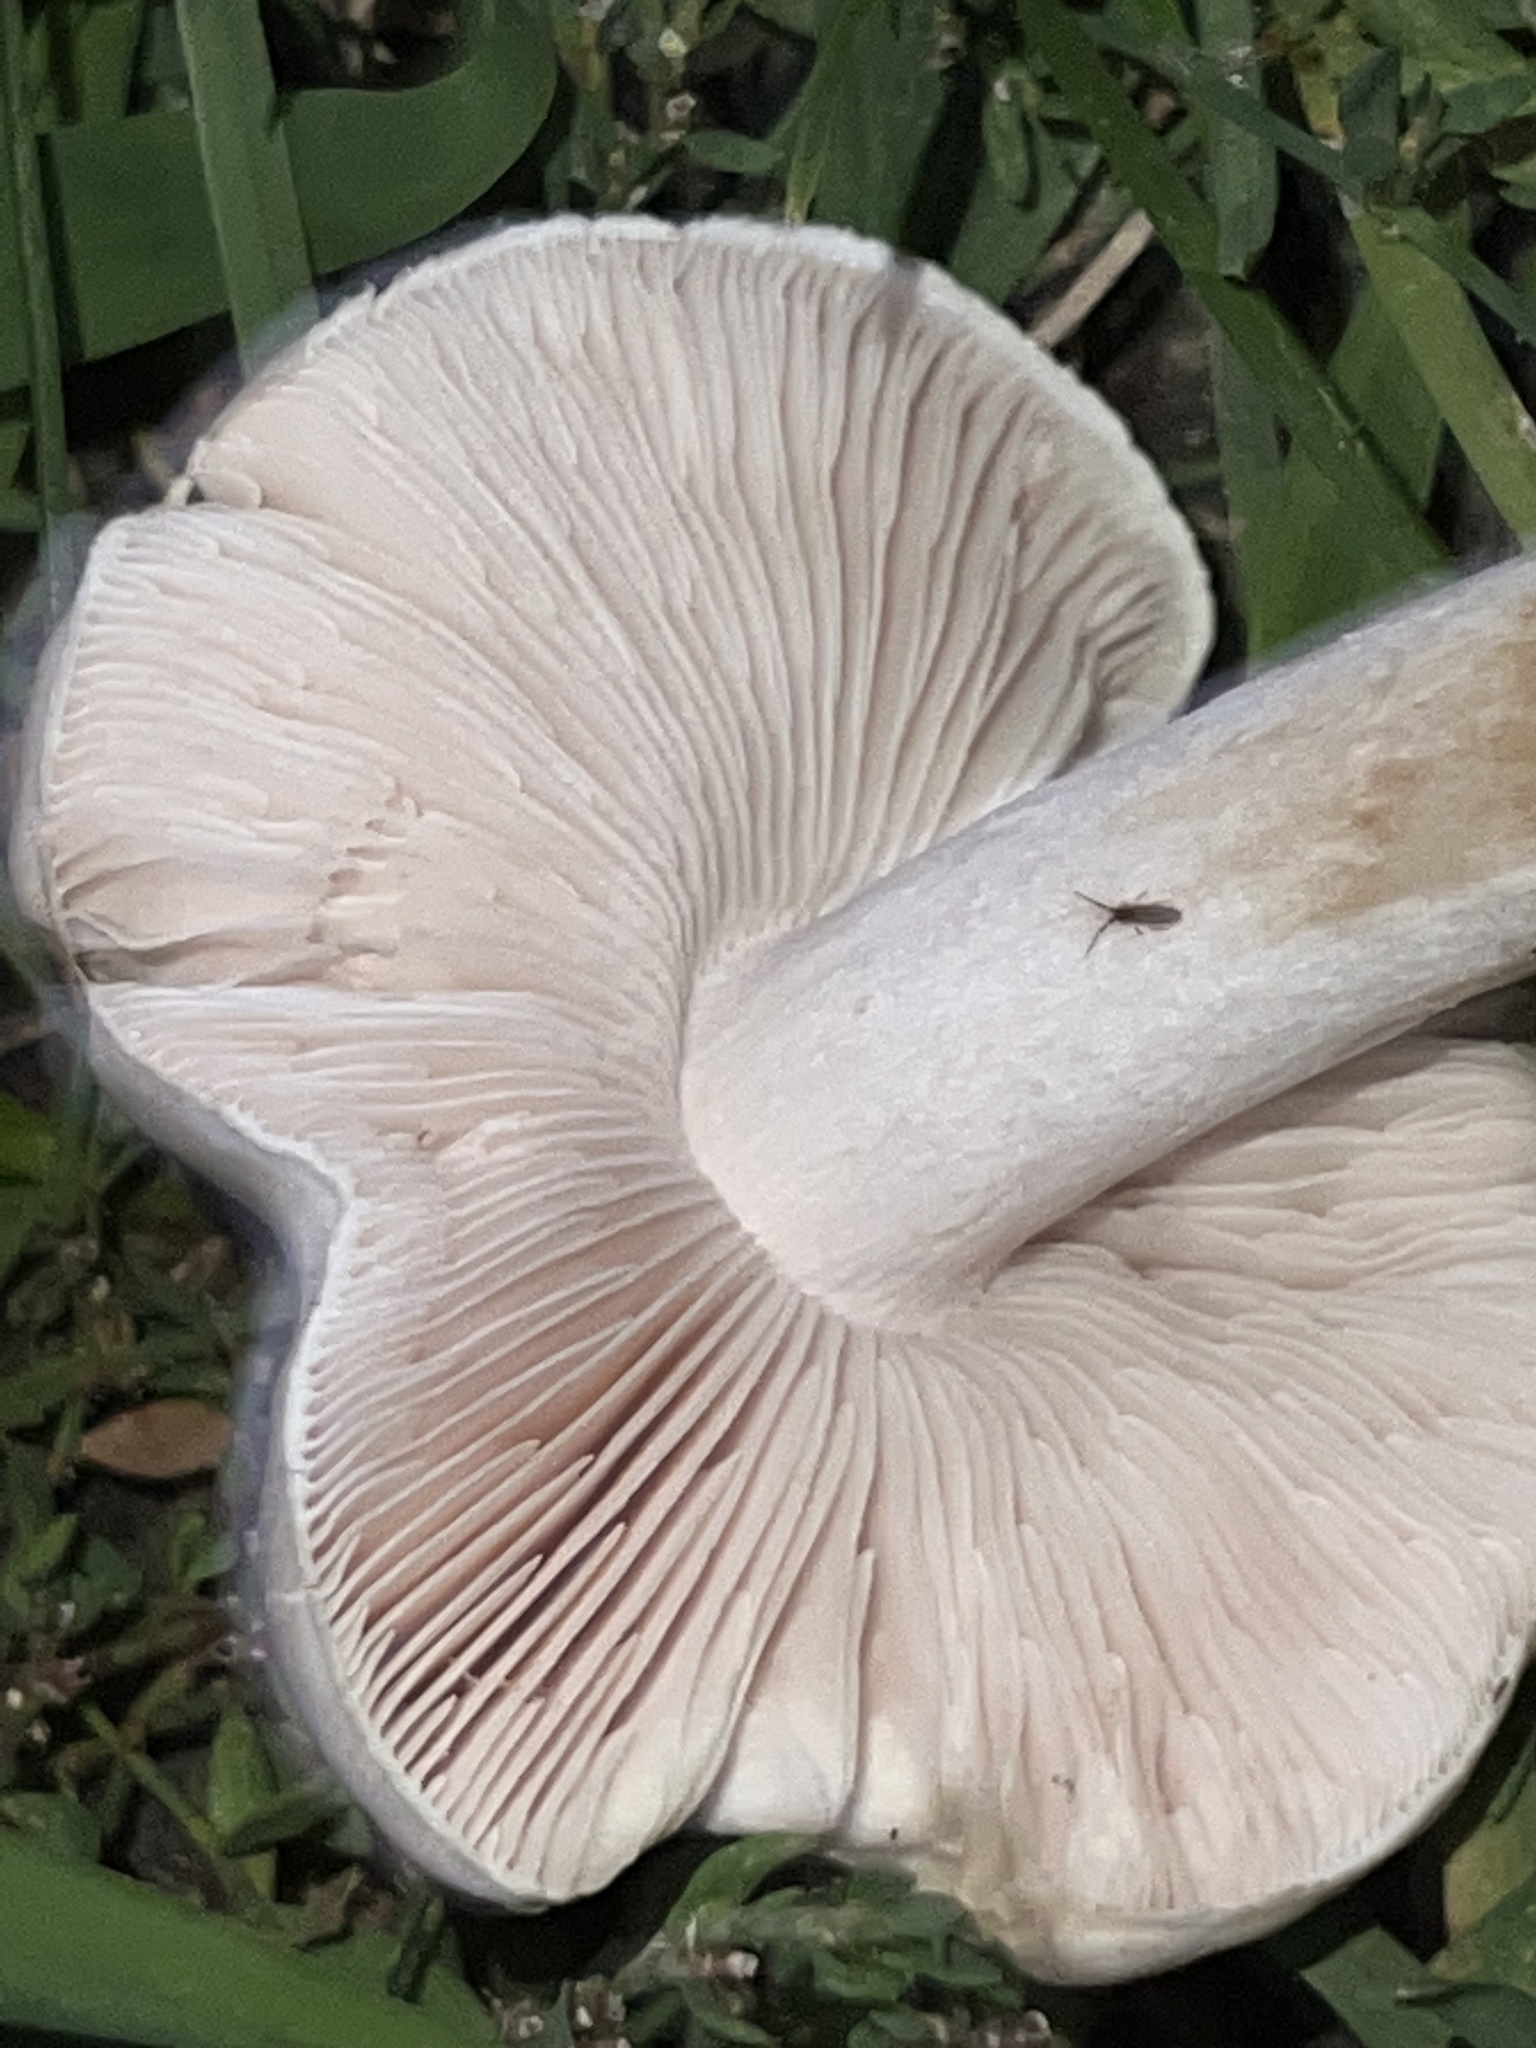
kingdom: Fungi
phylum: Basidiomycota
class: Agaricomycetes
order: Agaricales
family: Pluteaceae
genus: Pluteus
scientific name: Pluteus petasatus
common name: Scaly shield
